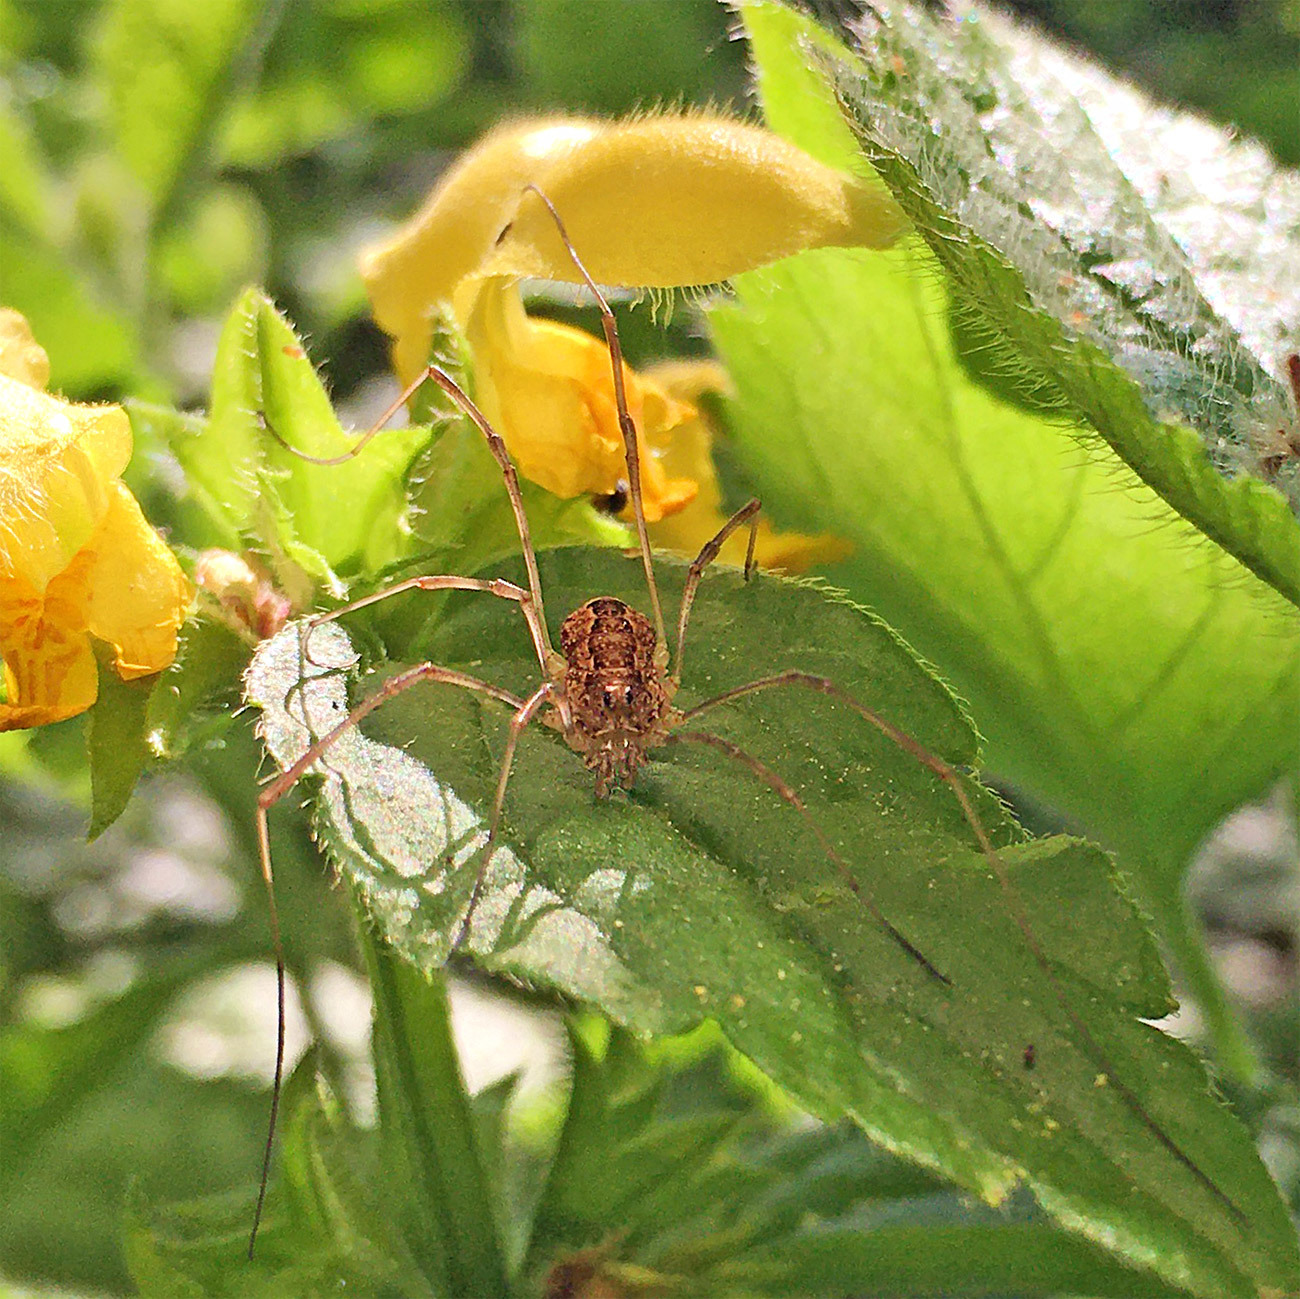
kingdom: Animalia
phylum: Arthropoda
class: Arachnida
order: Opiliones
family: Phalangiidae
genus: Rilaena
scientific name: Rilaena triangularis
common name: Spring harvestman
